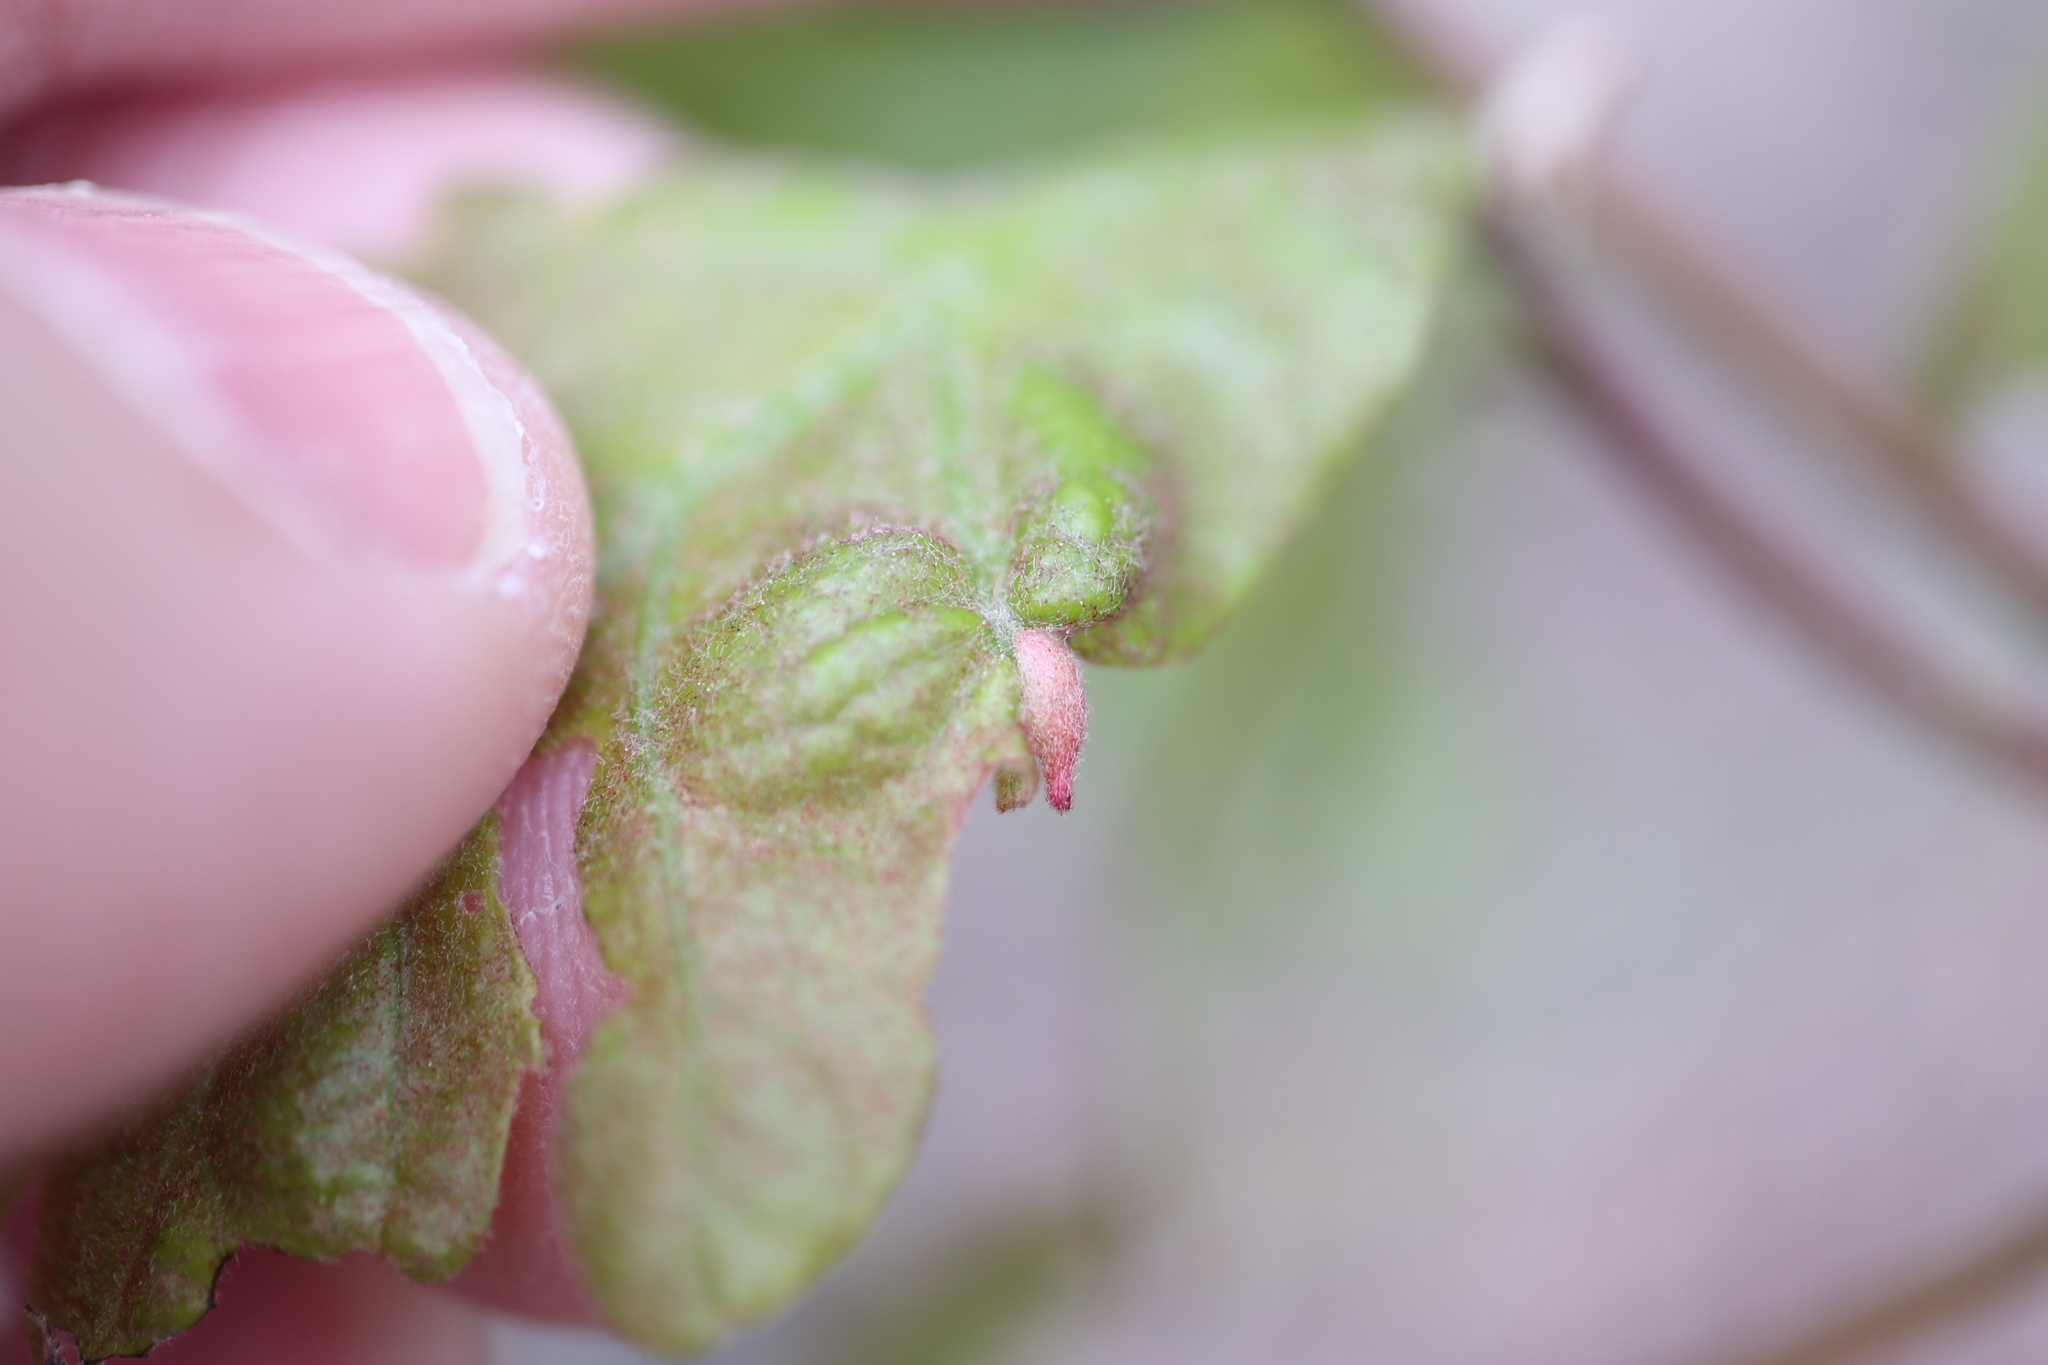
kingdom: Animalia
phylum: Arthropoda
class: Insecta
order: Hymenoptera
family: Cynipidae
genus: Andricus
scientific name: Andricus
